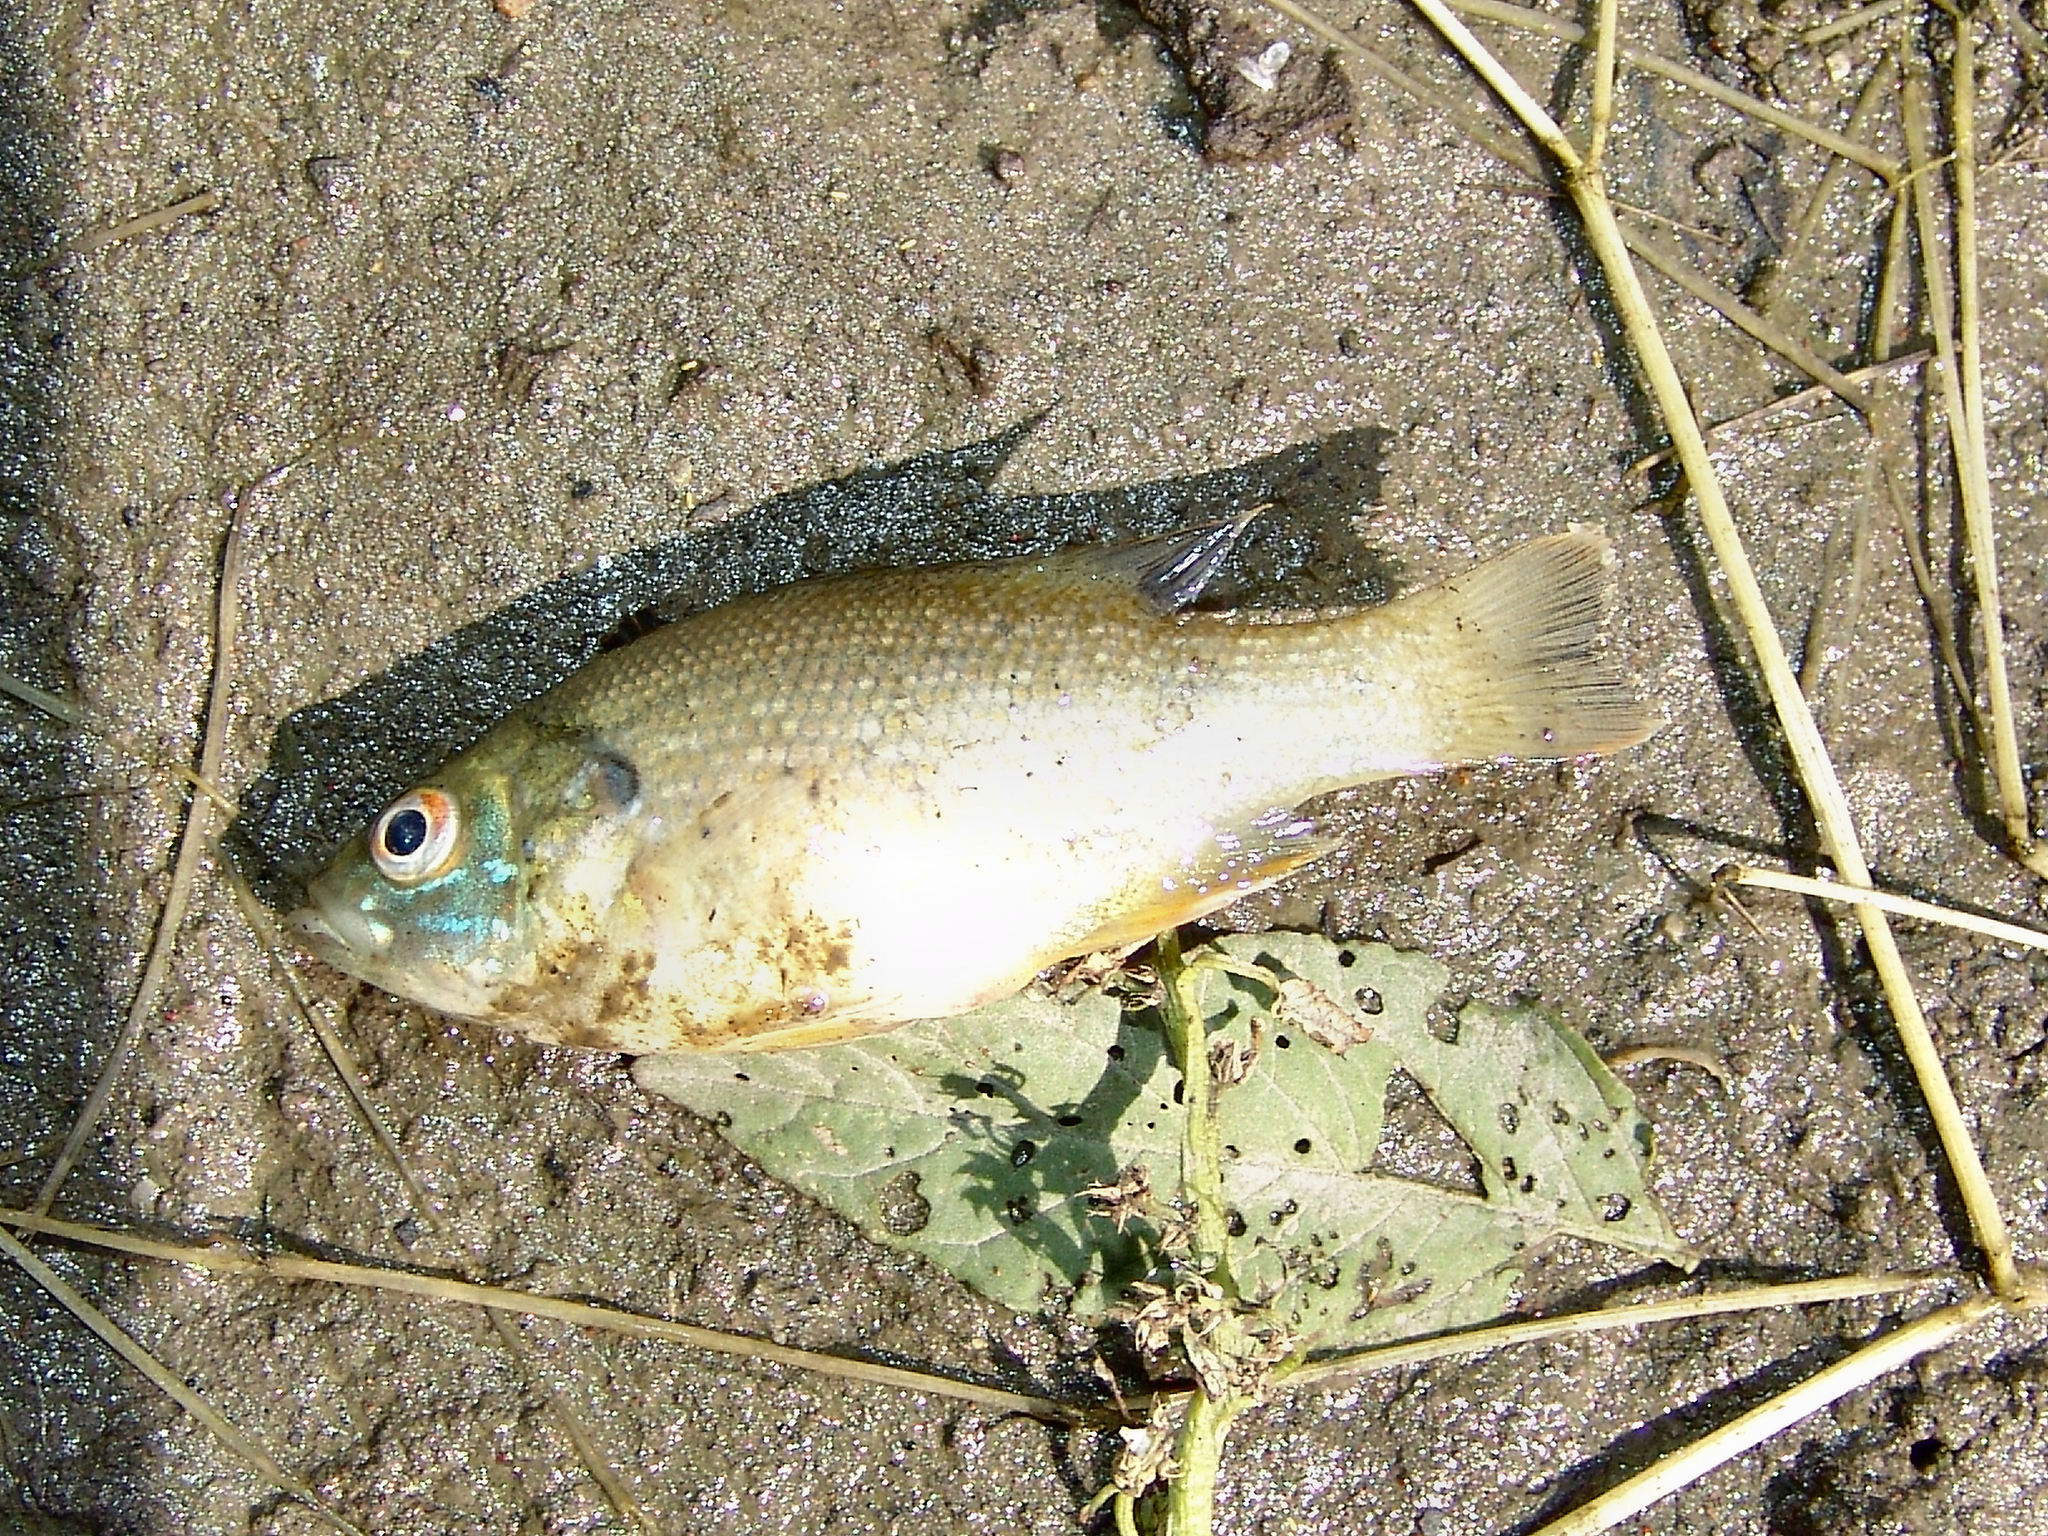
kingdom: Animalia
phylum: Chordata
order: Perciformes
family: Centrarchidae
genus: Lepomis
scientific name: Lepomis cyanellus
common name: Green sunfish
